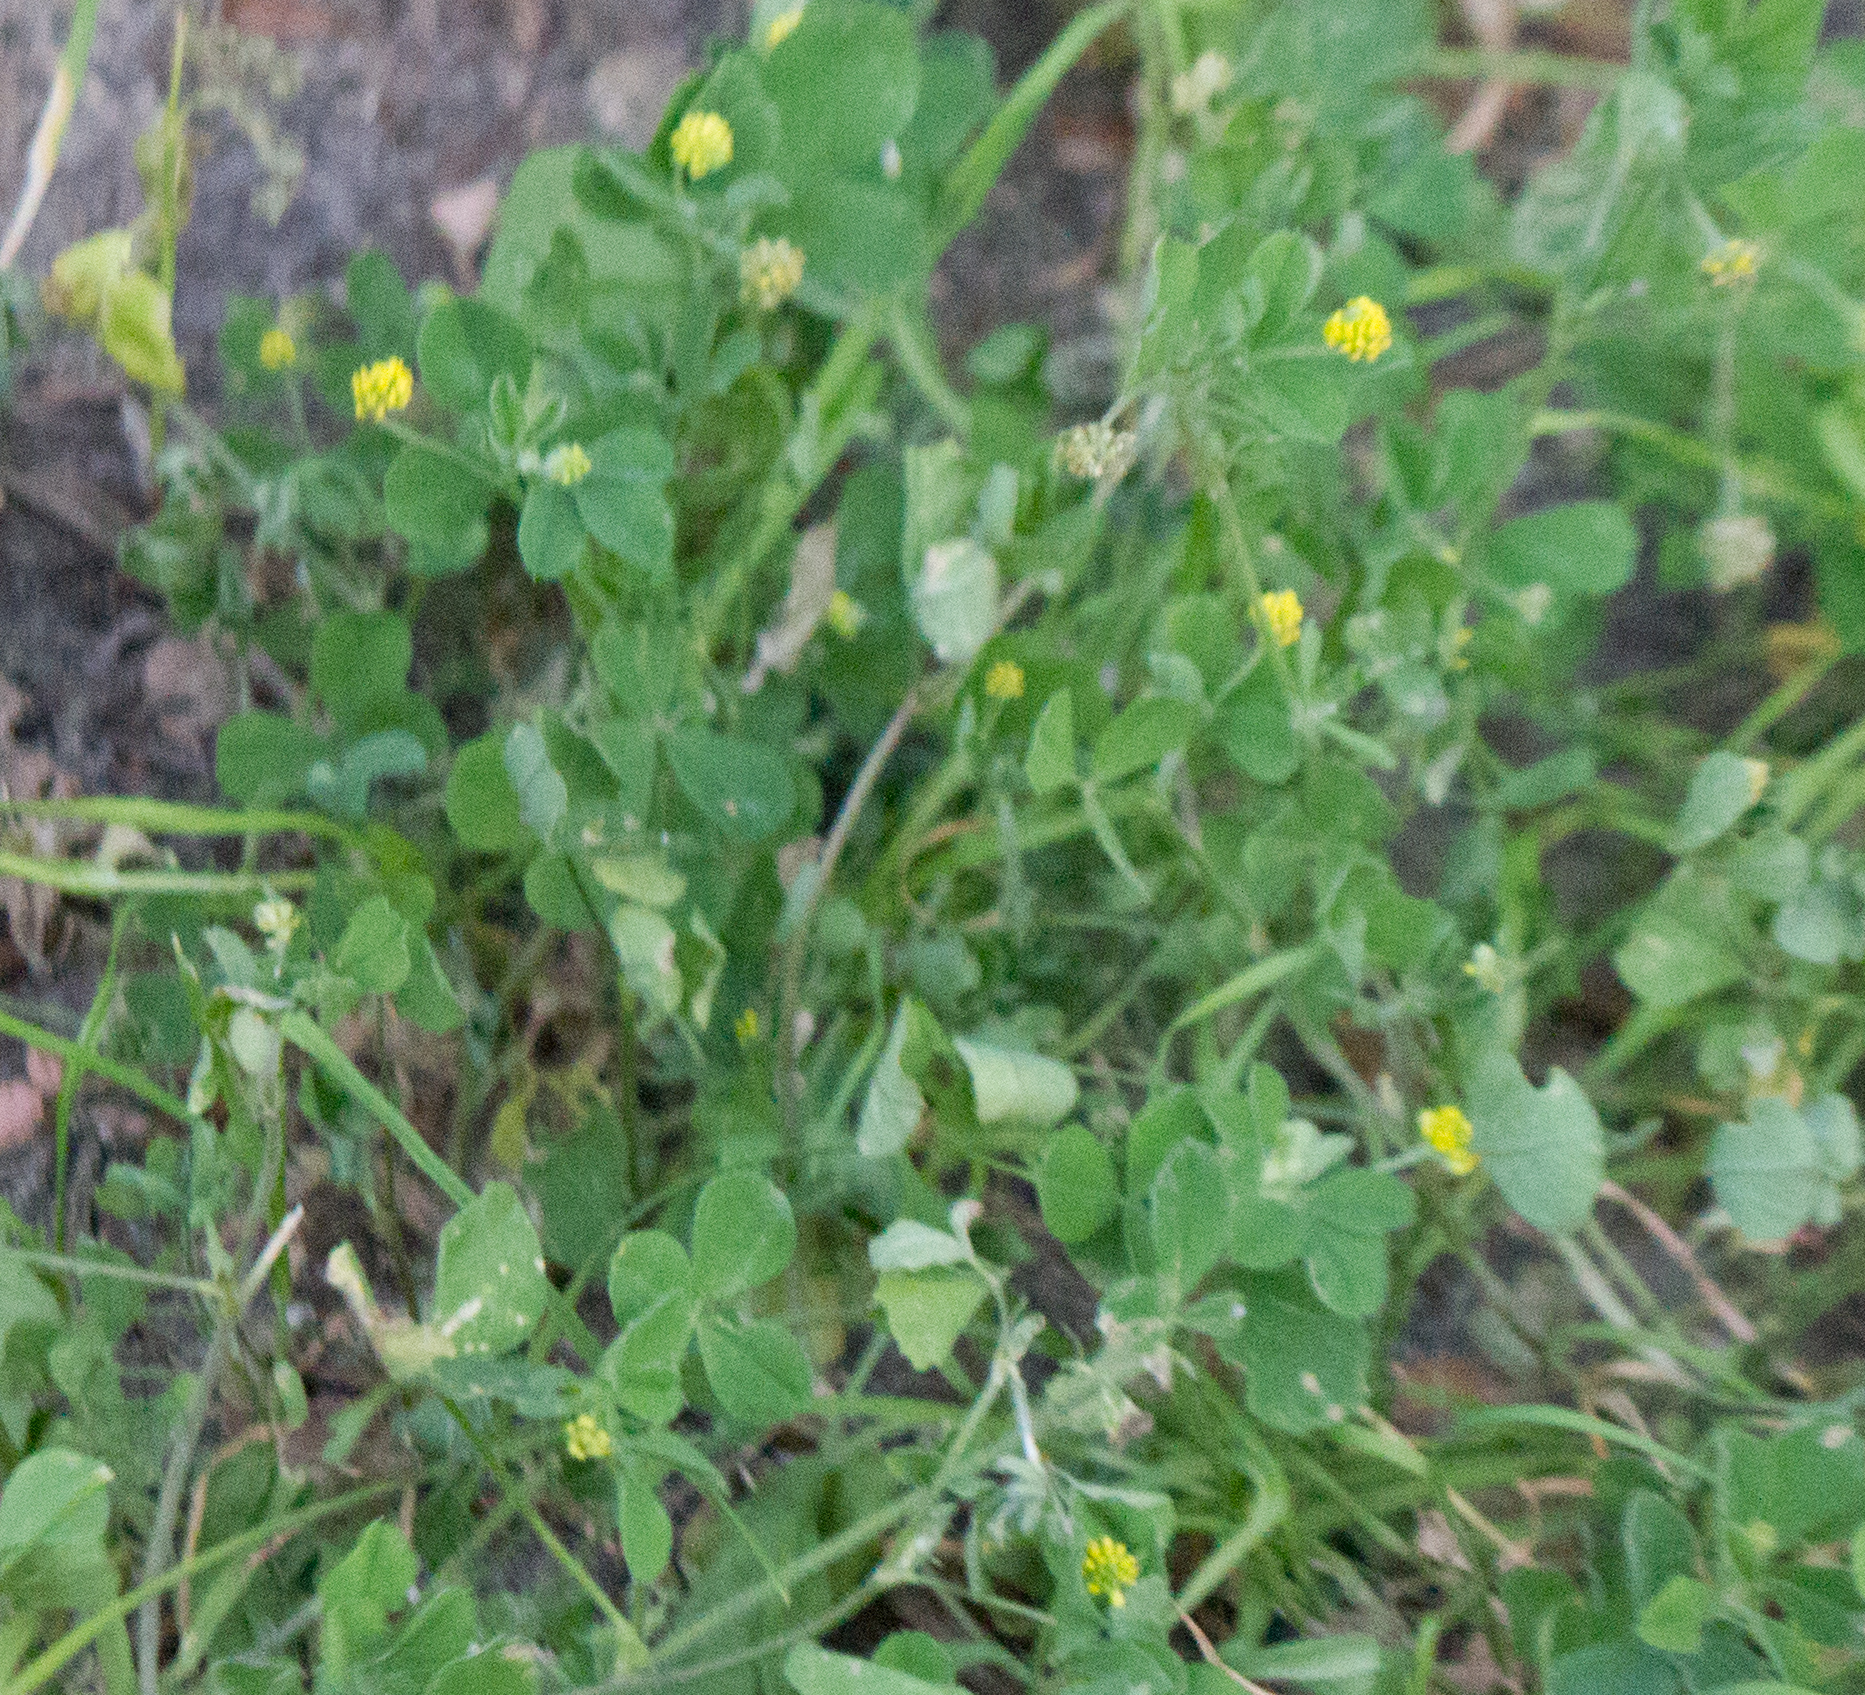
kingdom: Plantae
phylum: Tracheophyta
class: Magnoliopsida
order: Fabales
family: Fabaceae
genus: Medicago
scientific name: Medicago lupulina
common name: Black medick
